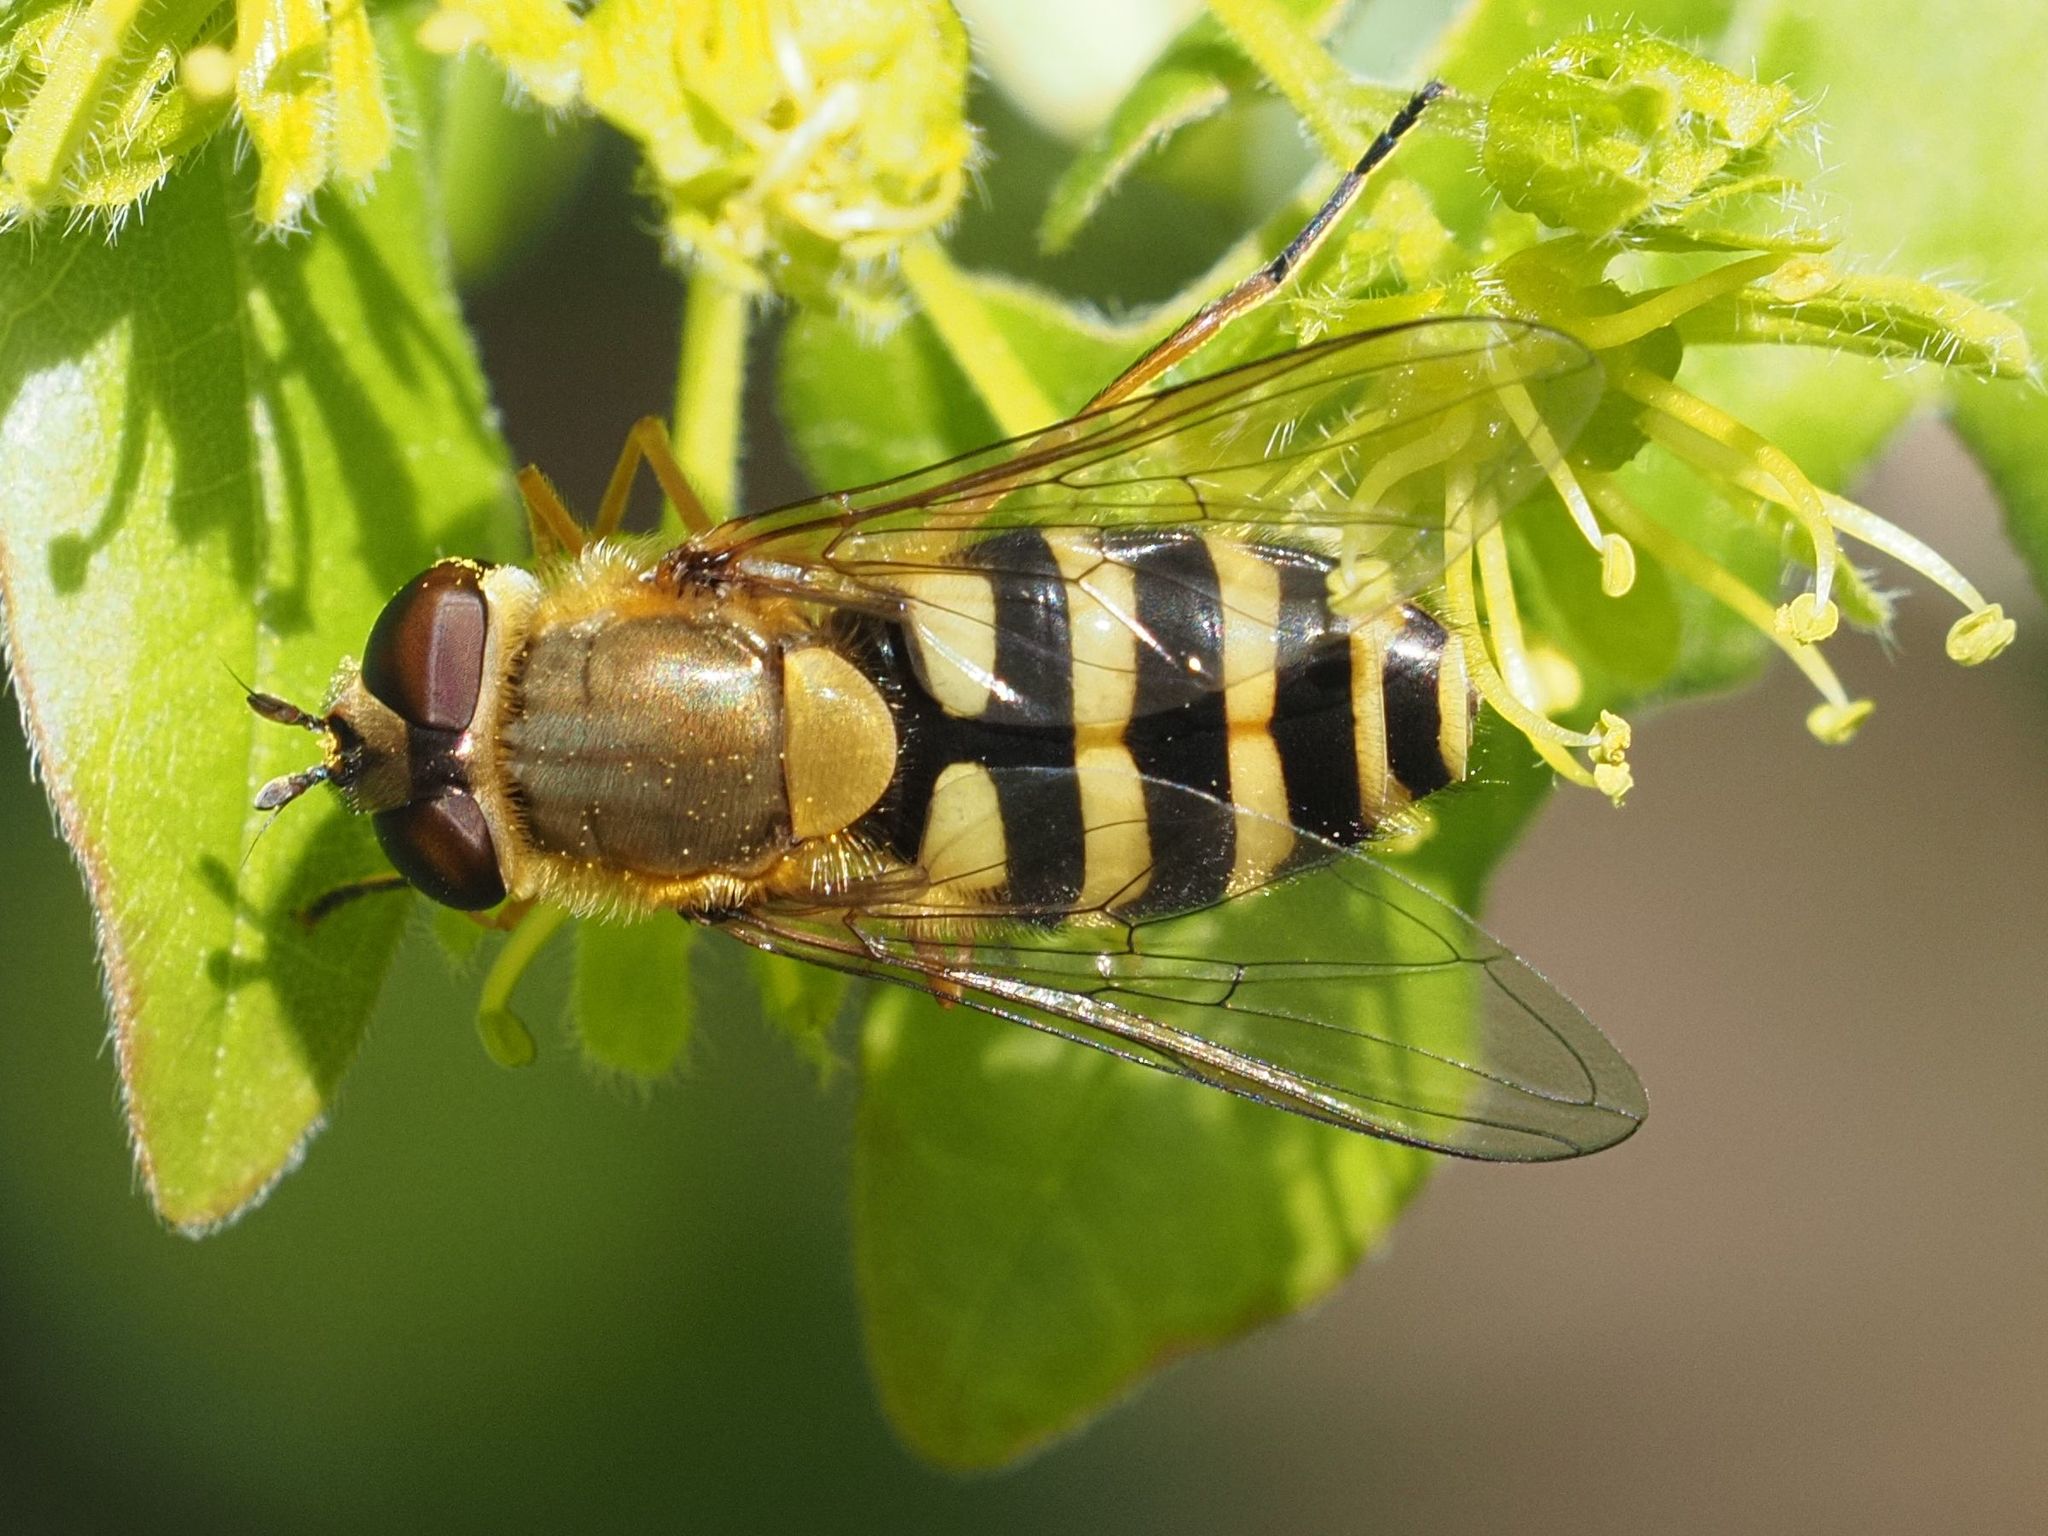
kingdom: Animalia
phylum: Arthropoda
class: Insecta
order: Diptera
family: Syrphidae
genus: Syrphus
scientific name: Syrphus ribesii
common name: Common flower fly
